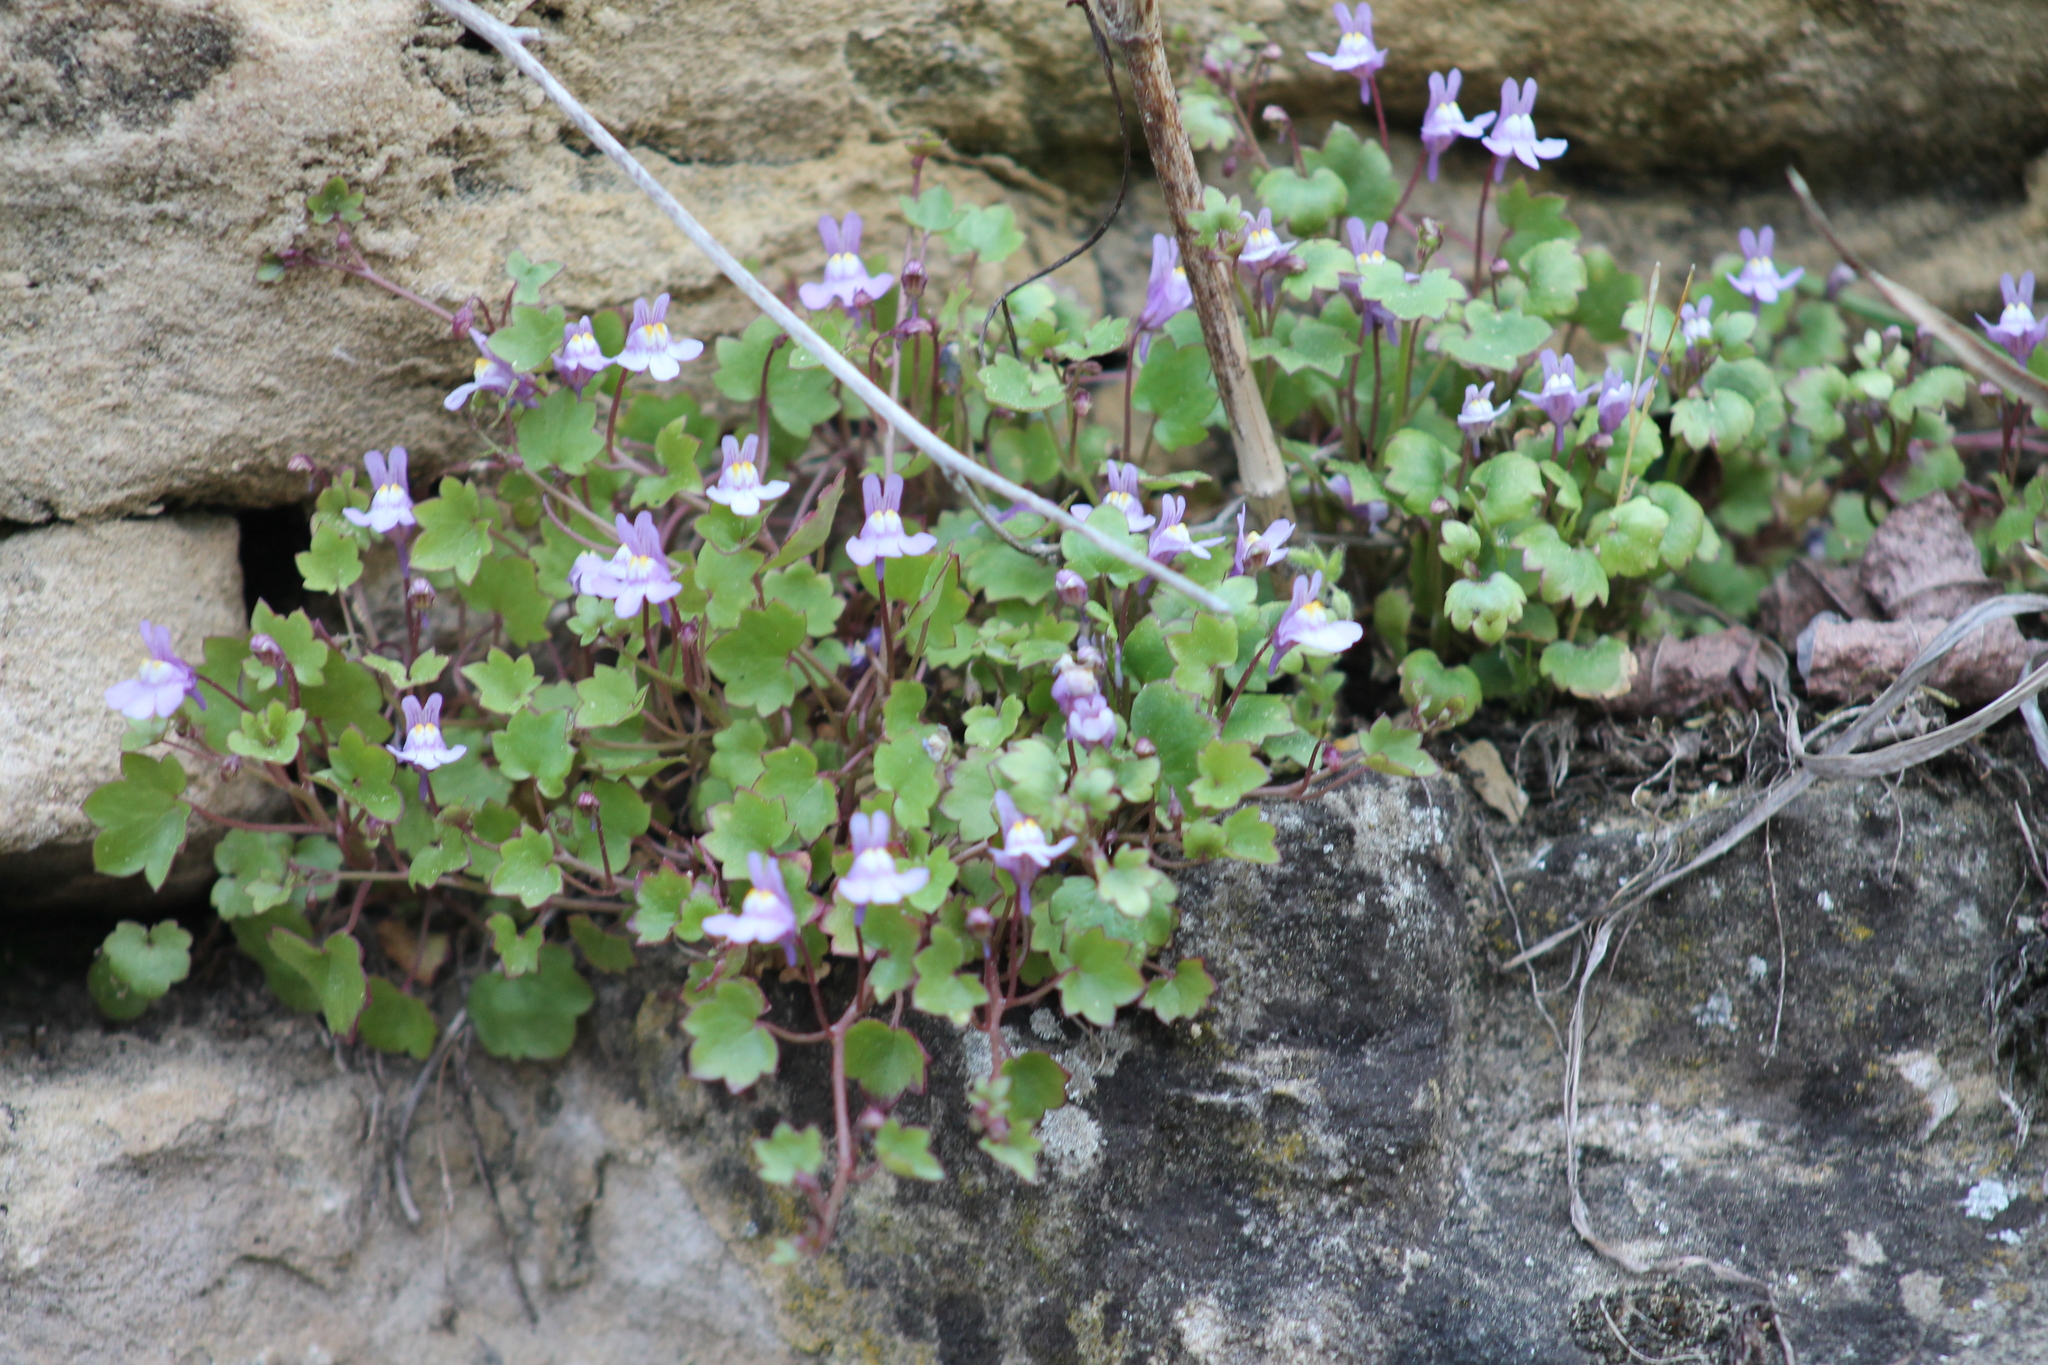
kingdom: Plantae
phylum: Tracheophyta
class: Magnoliopsida
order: Lamiales
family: Plantaginaceae
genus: Cymbalaria
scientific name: Cymbalaria muralis
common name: Ivy-leaved toadflax
